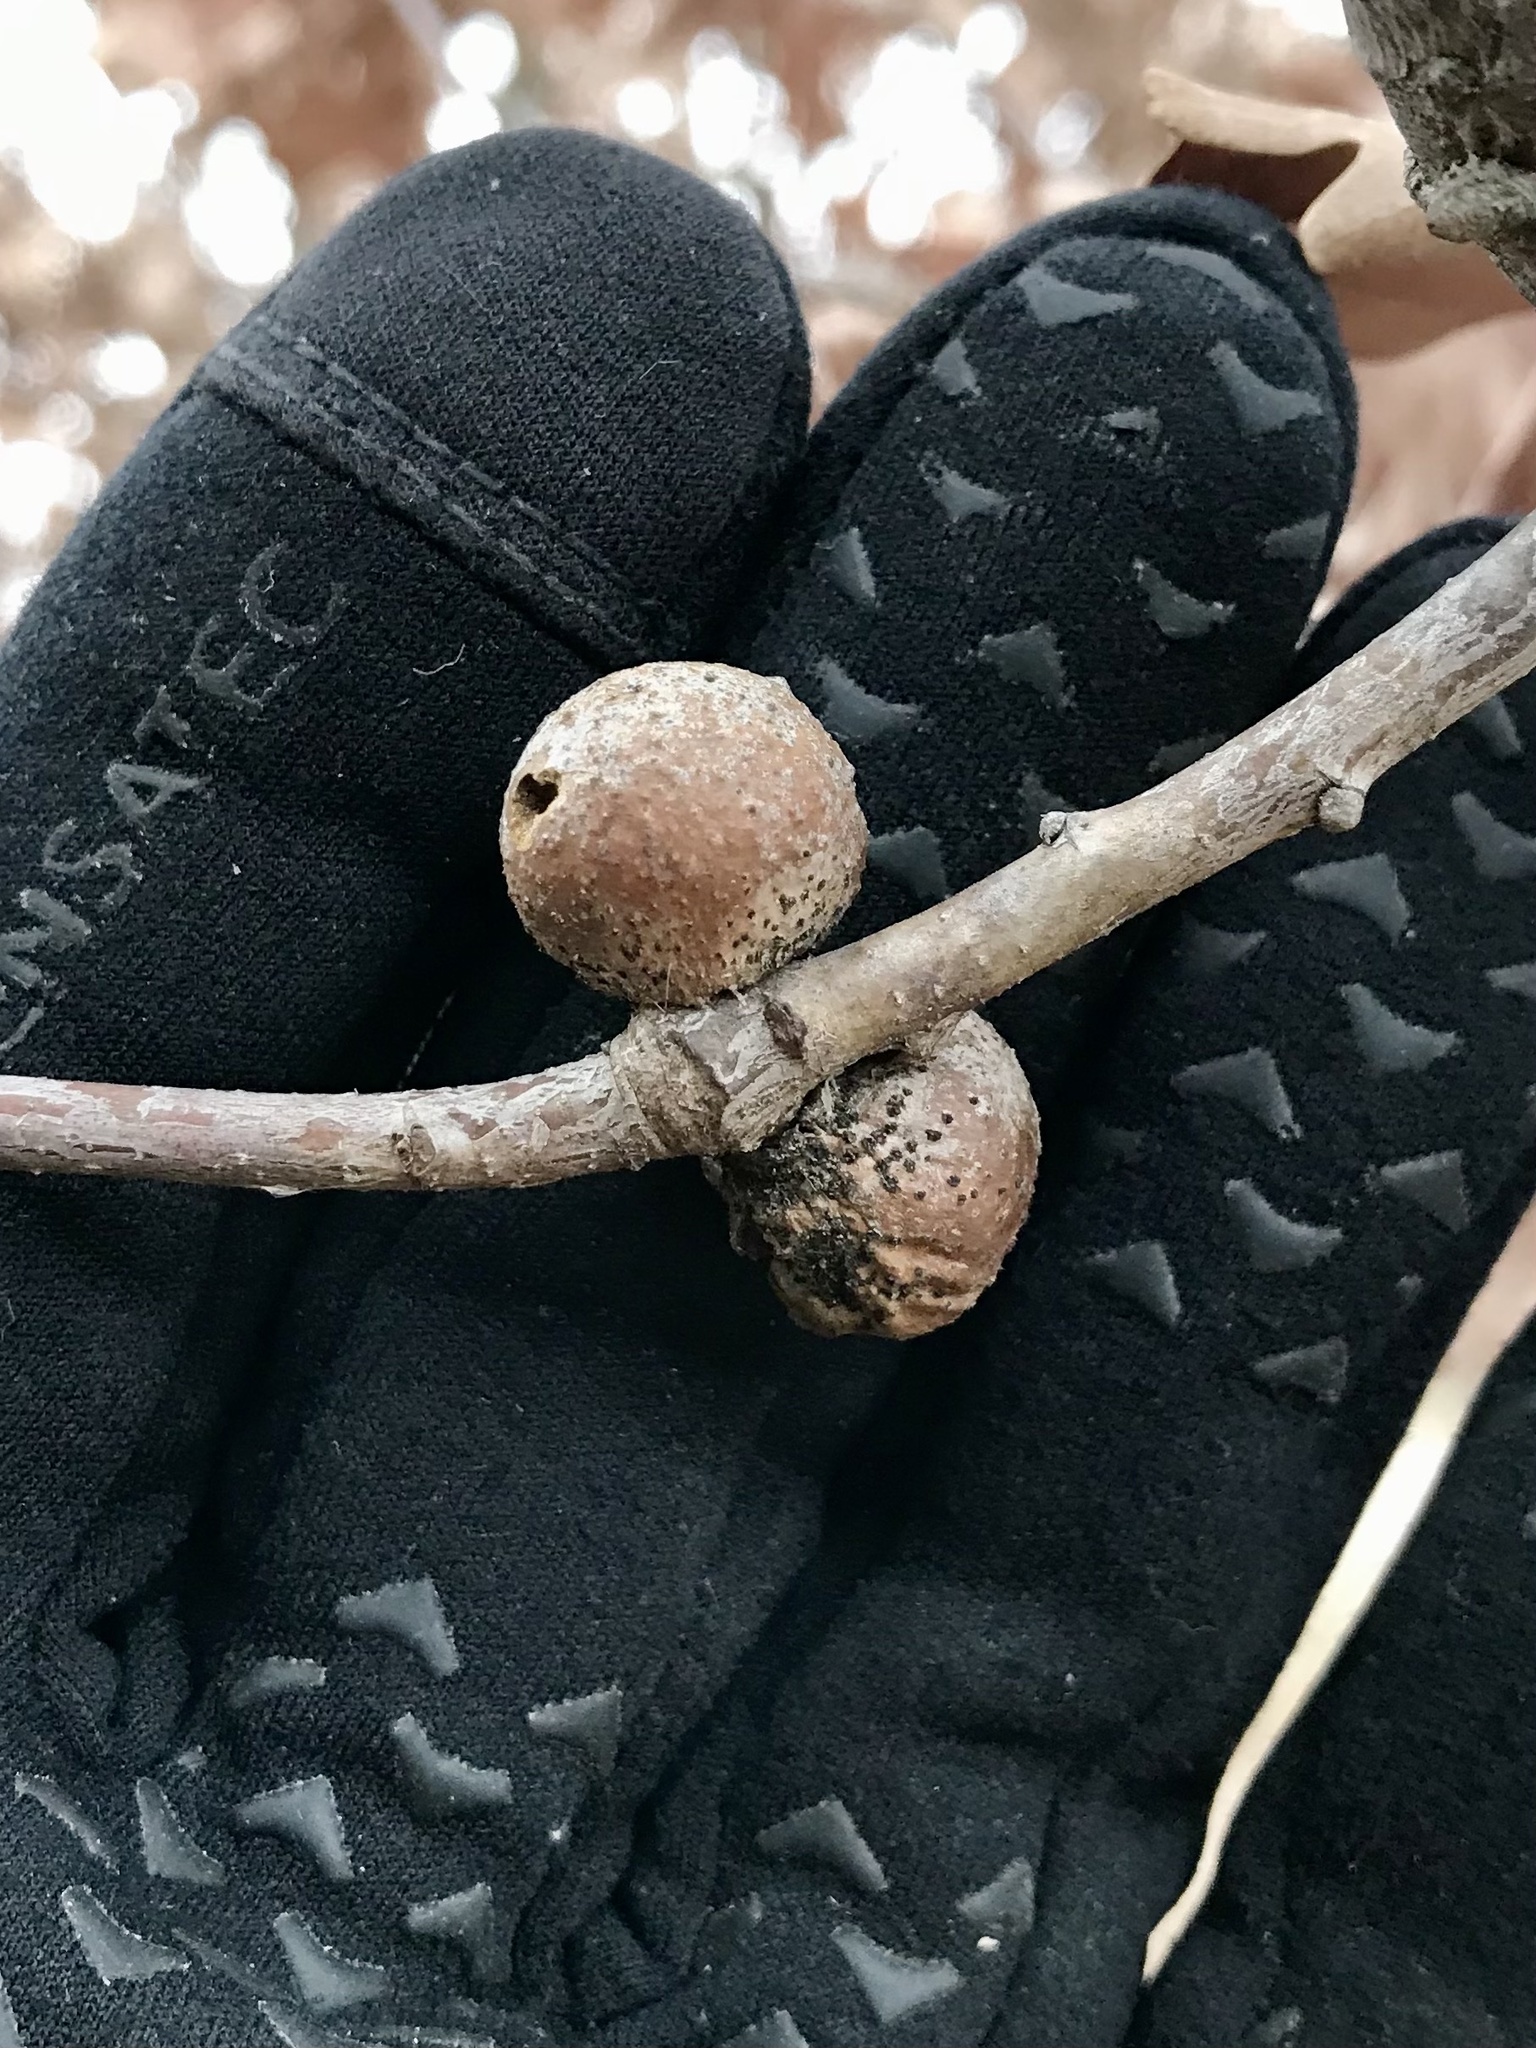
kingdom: Animalia
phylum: Arthropoda
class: Insecta
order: Hymenoptera
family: Cynipidae
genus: Disholcaspis
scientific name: Disholcaspis quercusglobulus
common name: Round bullet gall wasp
